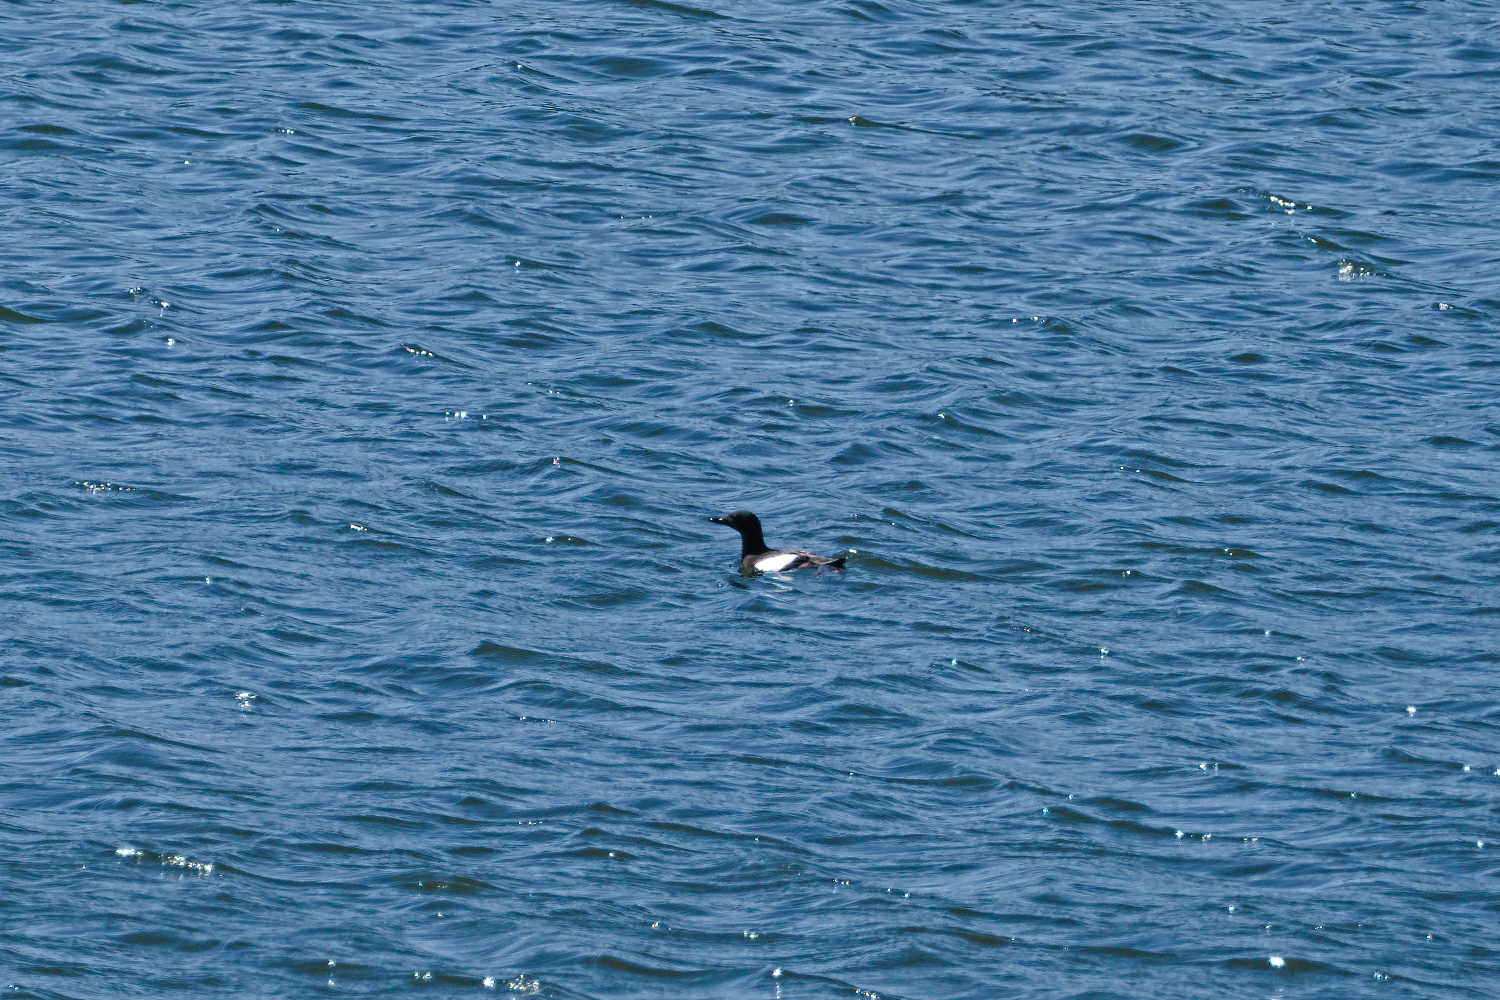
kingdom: Animalia
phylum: Chordata
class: Aves
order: Charadriiformes
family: Alcidae
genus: Cepphus
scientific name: Cepphus grylle
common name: Black guillemot
